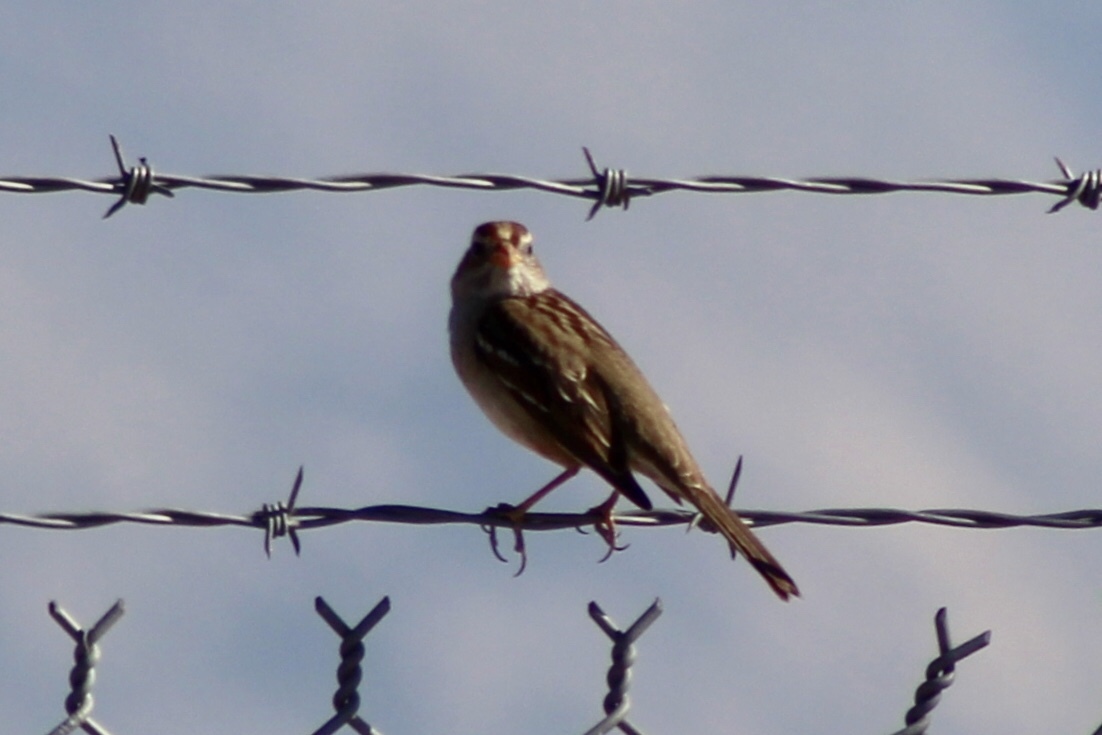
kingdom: Animalia
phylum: Chordata
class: Aves
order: Passeriformes
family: Passerellidae
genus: Zonotrichia
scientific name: Zonotrichia leucophrys
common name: White-crowned sparrow
